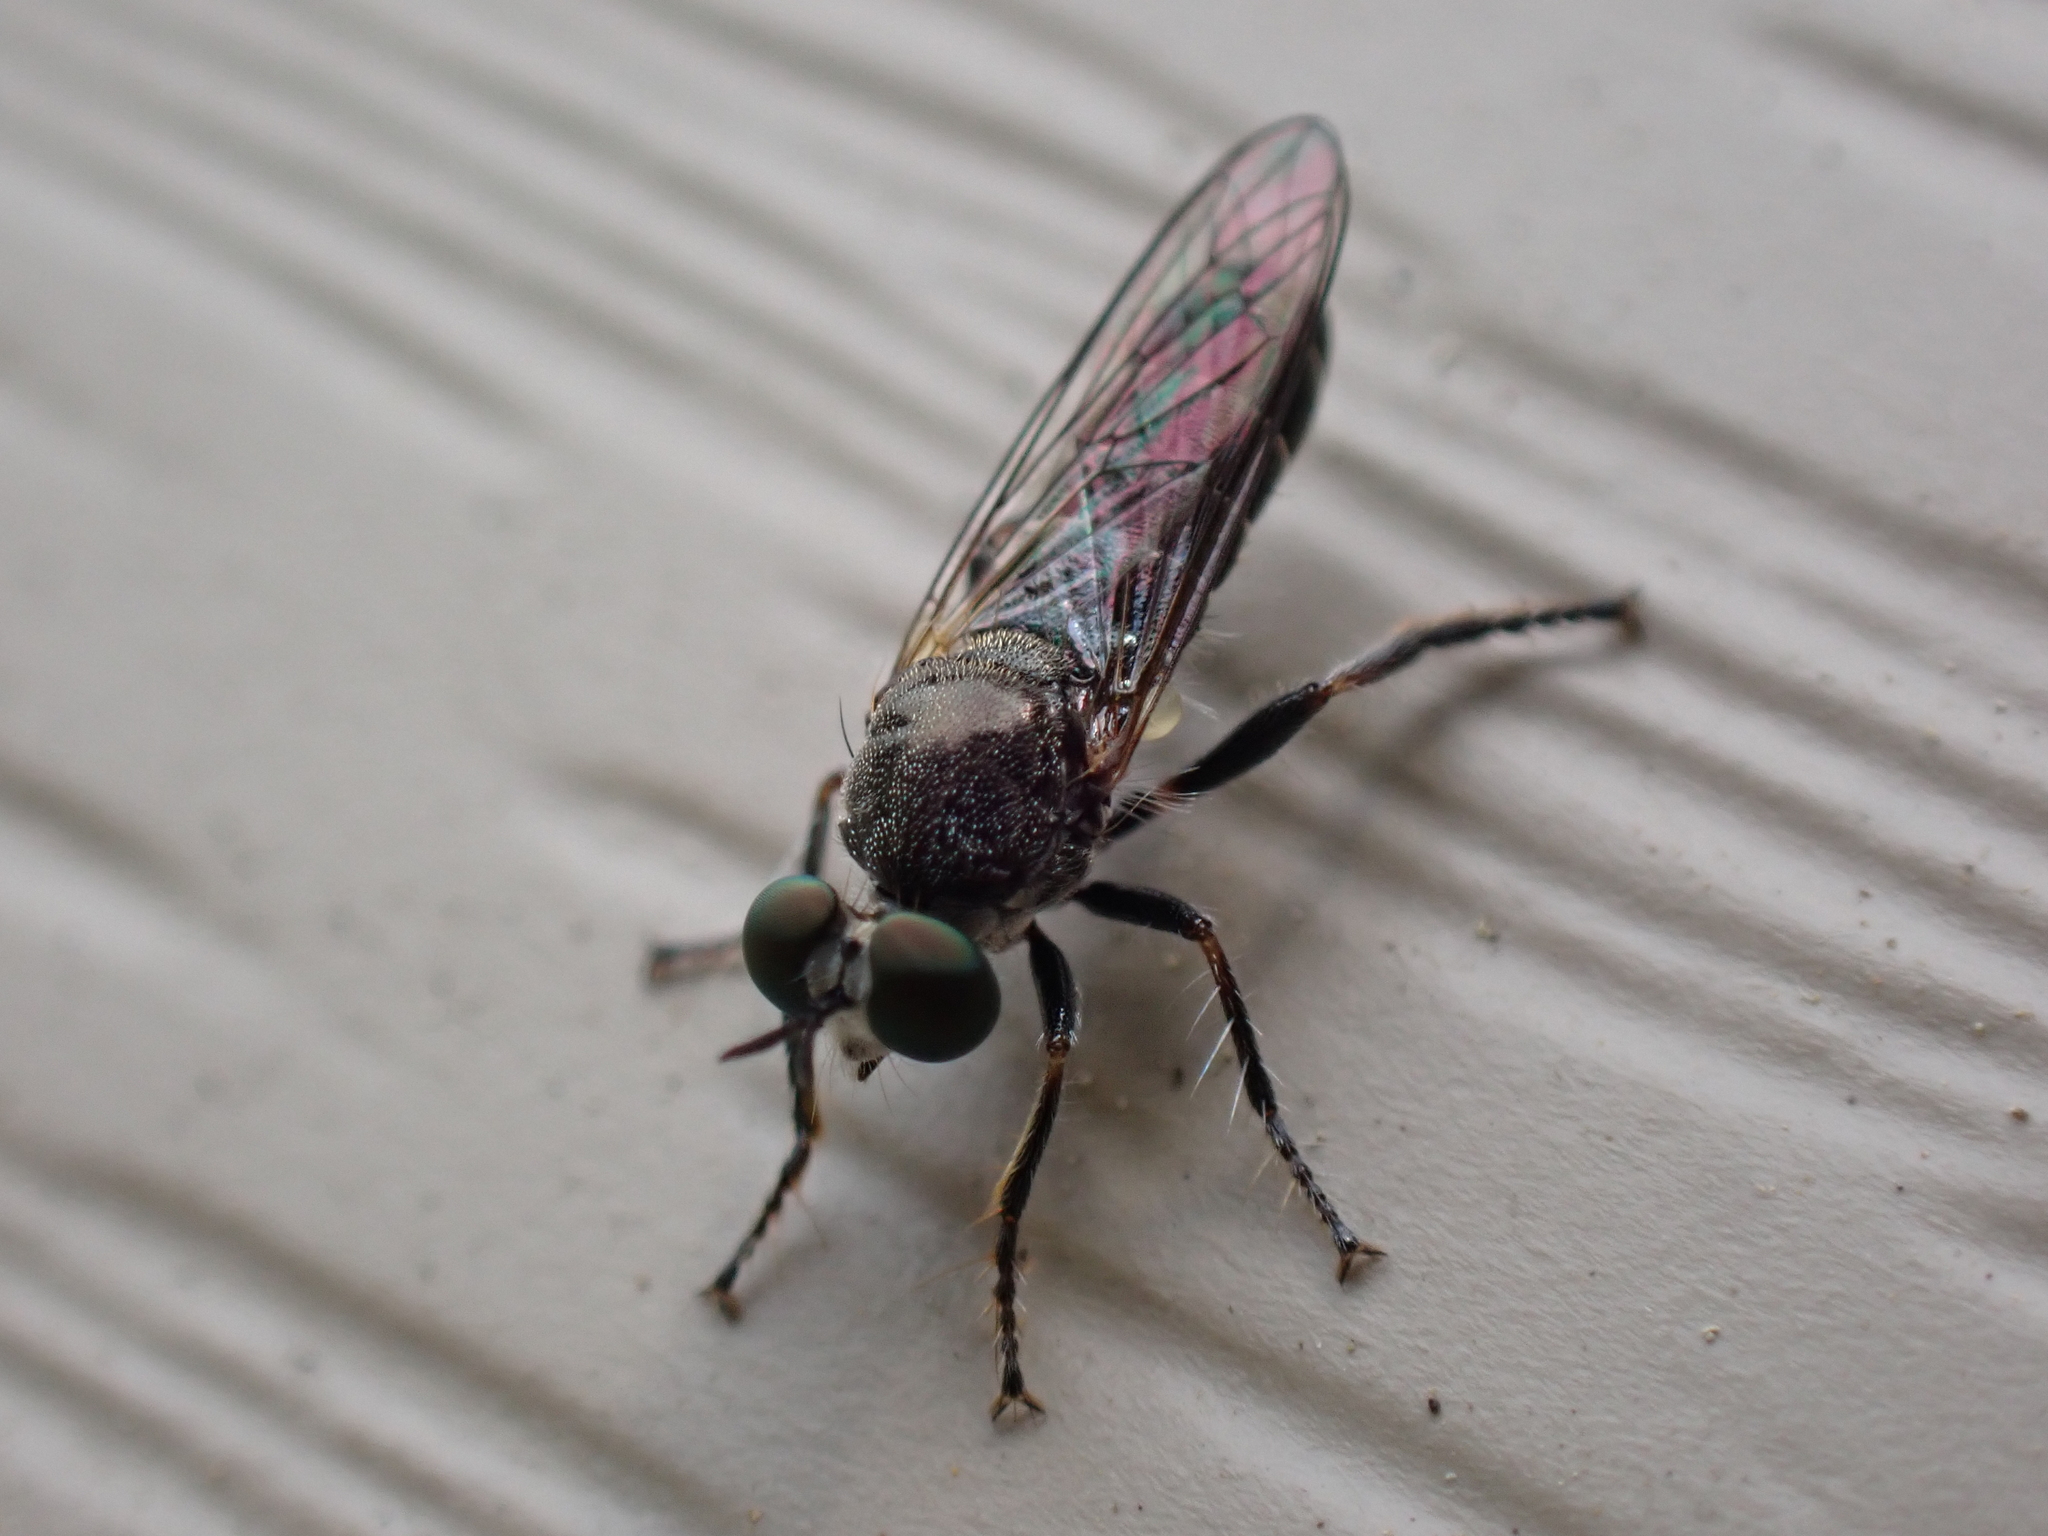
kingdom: Animalia
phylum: Arthropoda
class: Insecta
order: Diptera
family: Asilidae
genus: Atomosia
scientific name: Atomosia puella
